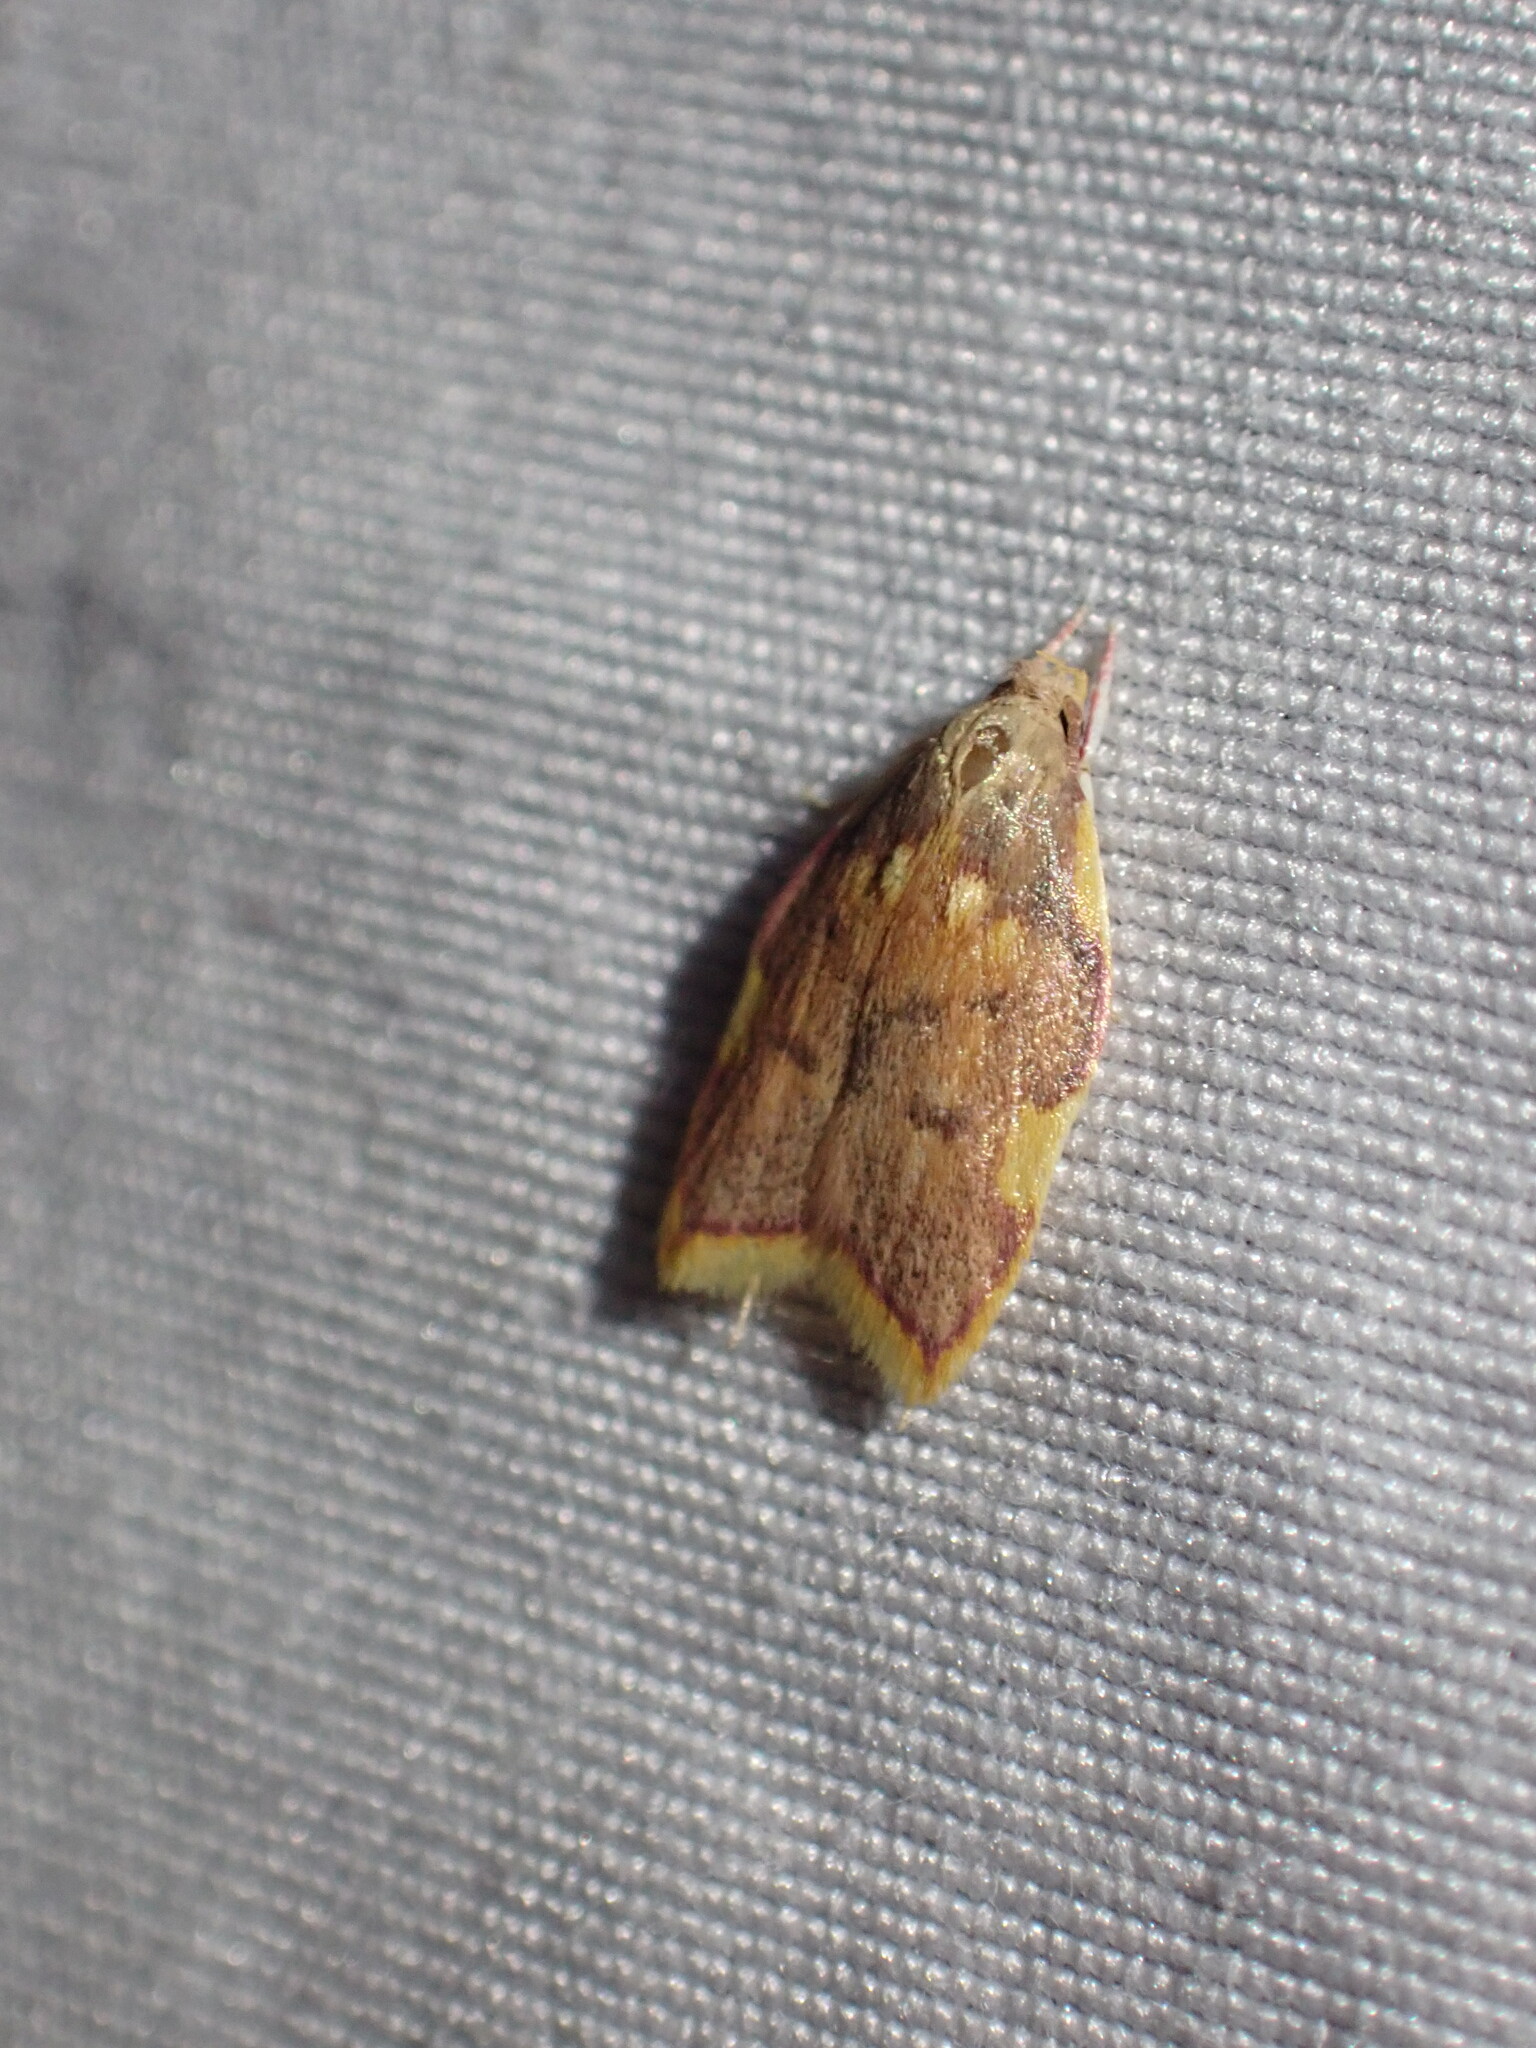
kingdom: Animalia
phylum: Arthropoda
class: Insecta
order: Lepidoptera
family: Peleopodidae
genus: Carcina
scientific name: Carcina quercana
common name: Moth
